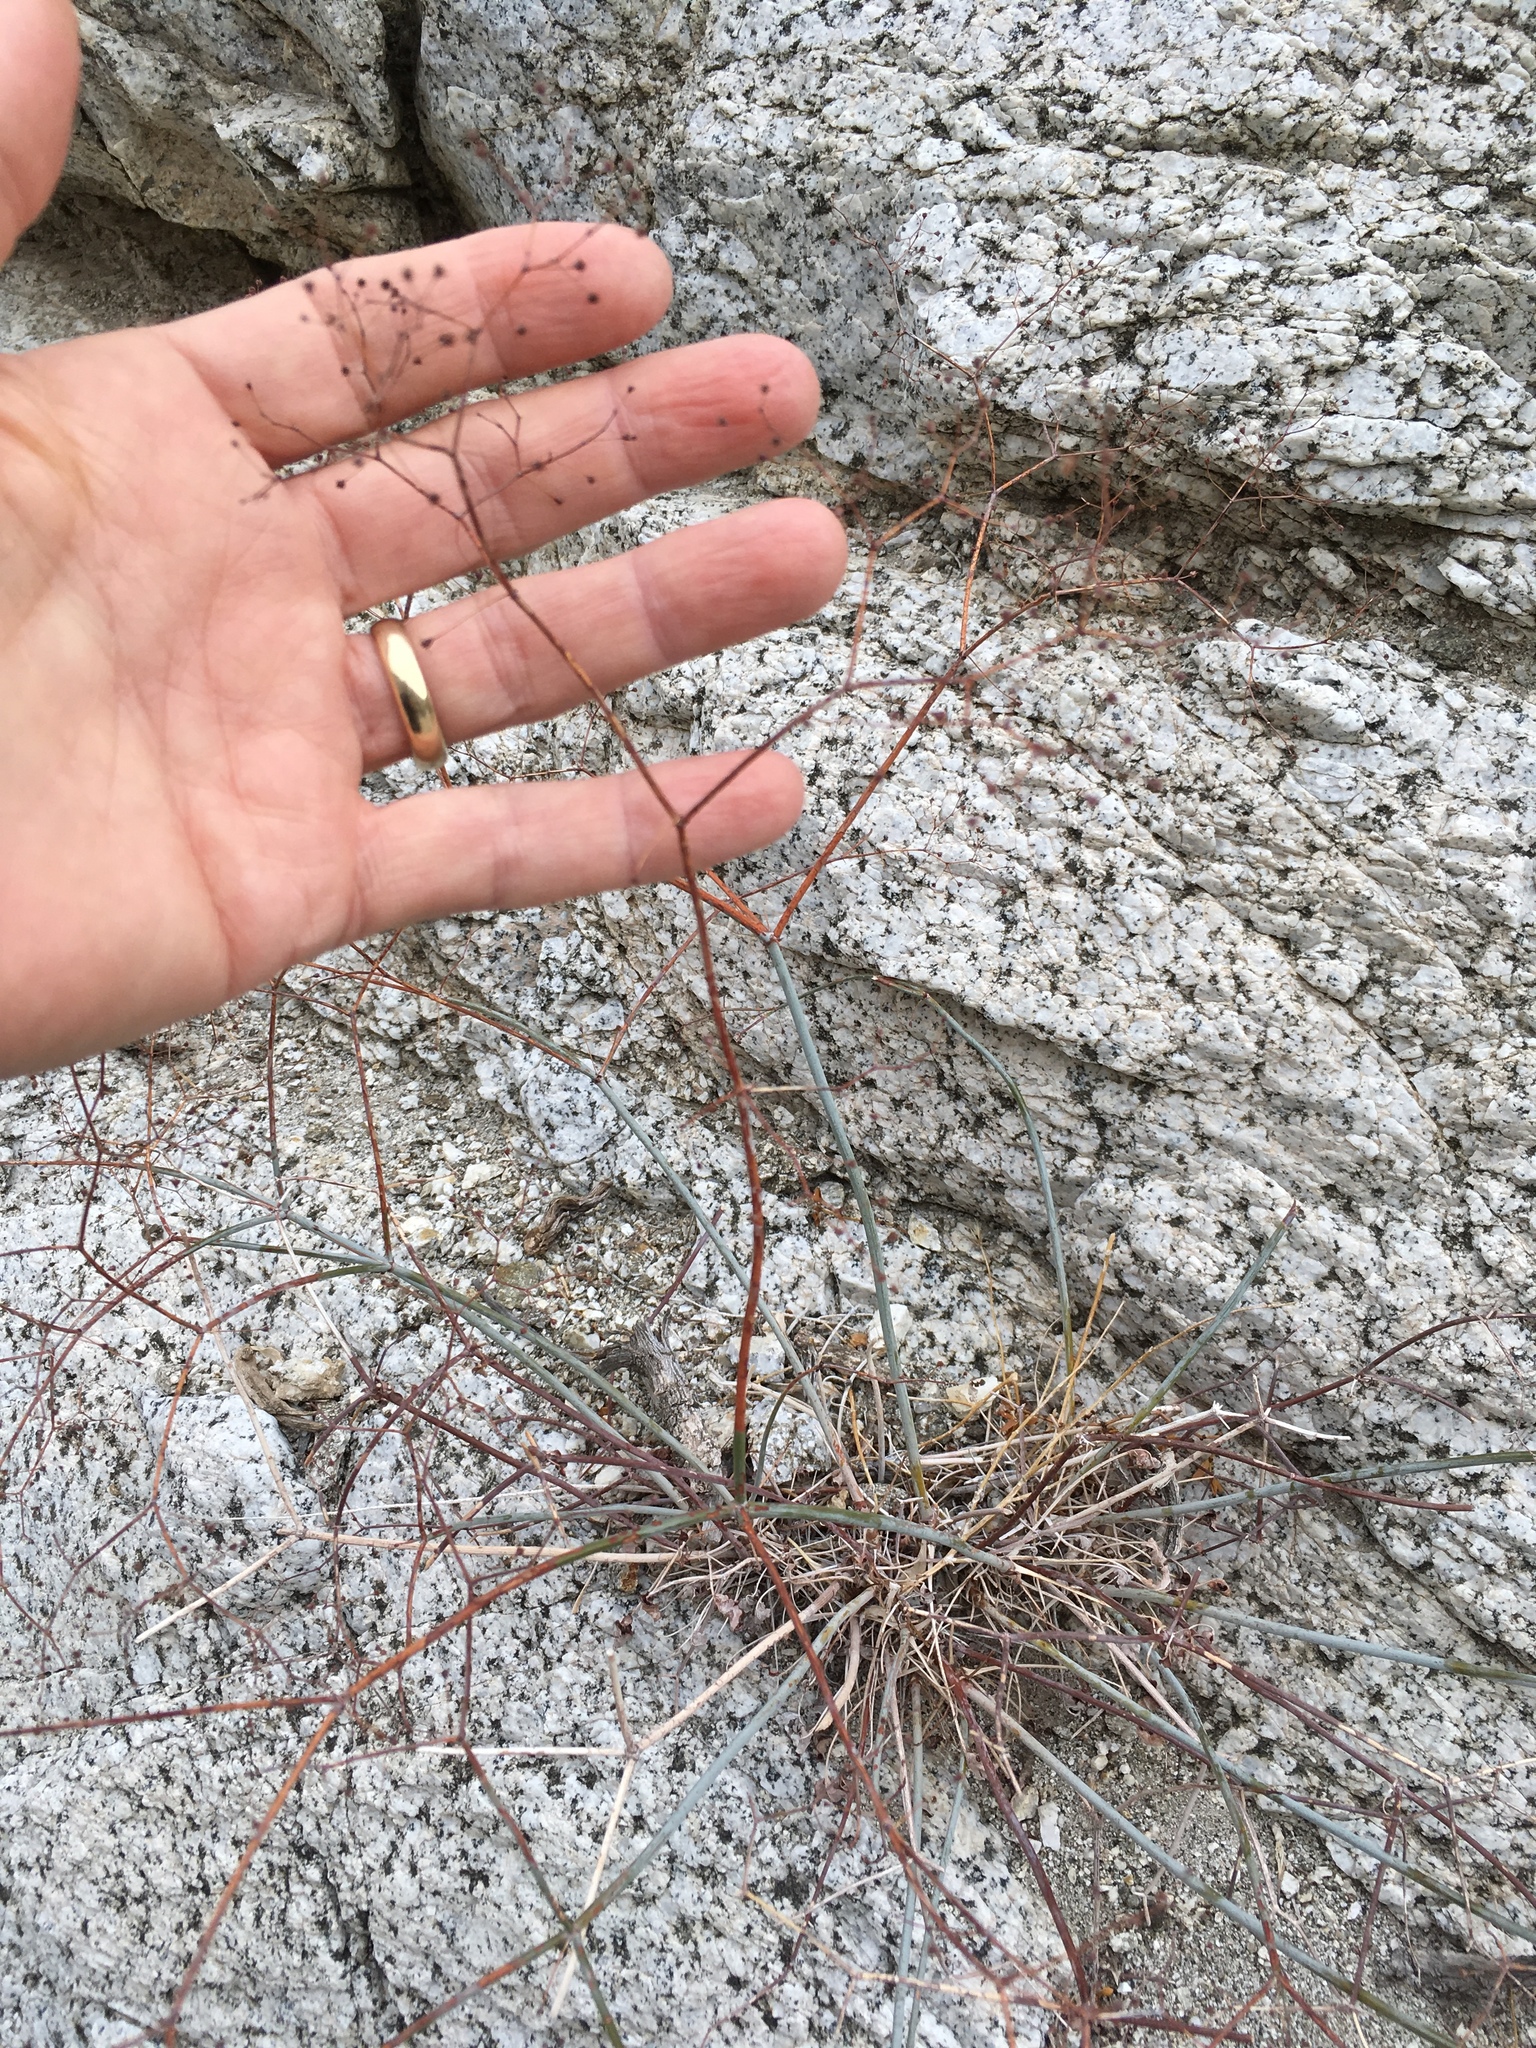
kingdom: Plantae
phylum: Tracheophyta
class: Magnoliopsida
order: Caryophyllales
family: Polygonaceae
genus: Eriogonum
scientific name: Eriogonum inflatum
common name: Desert trumpet
